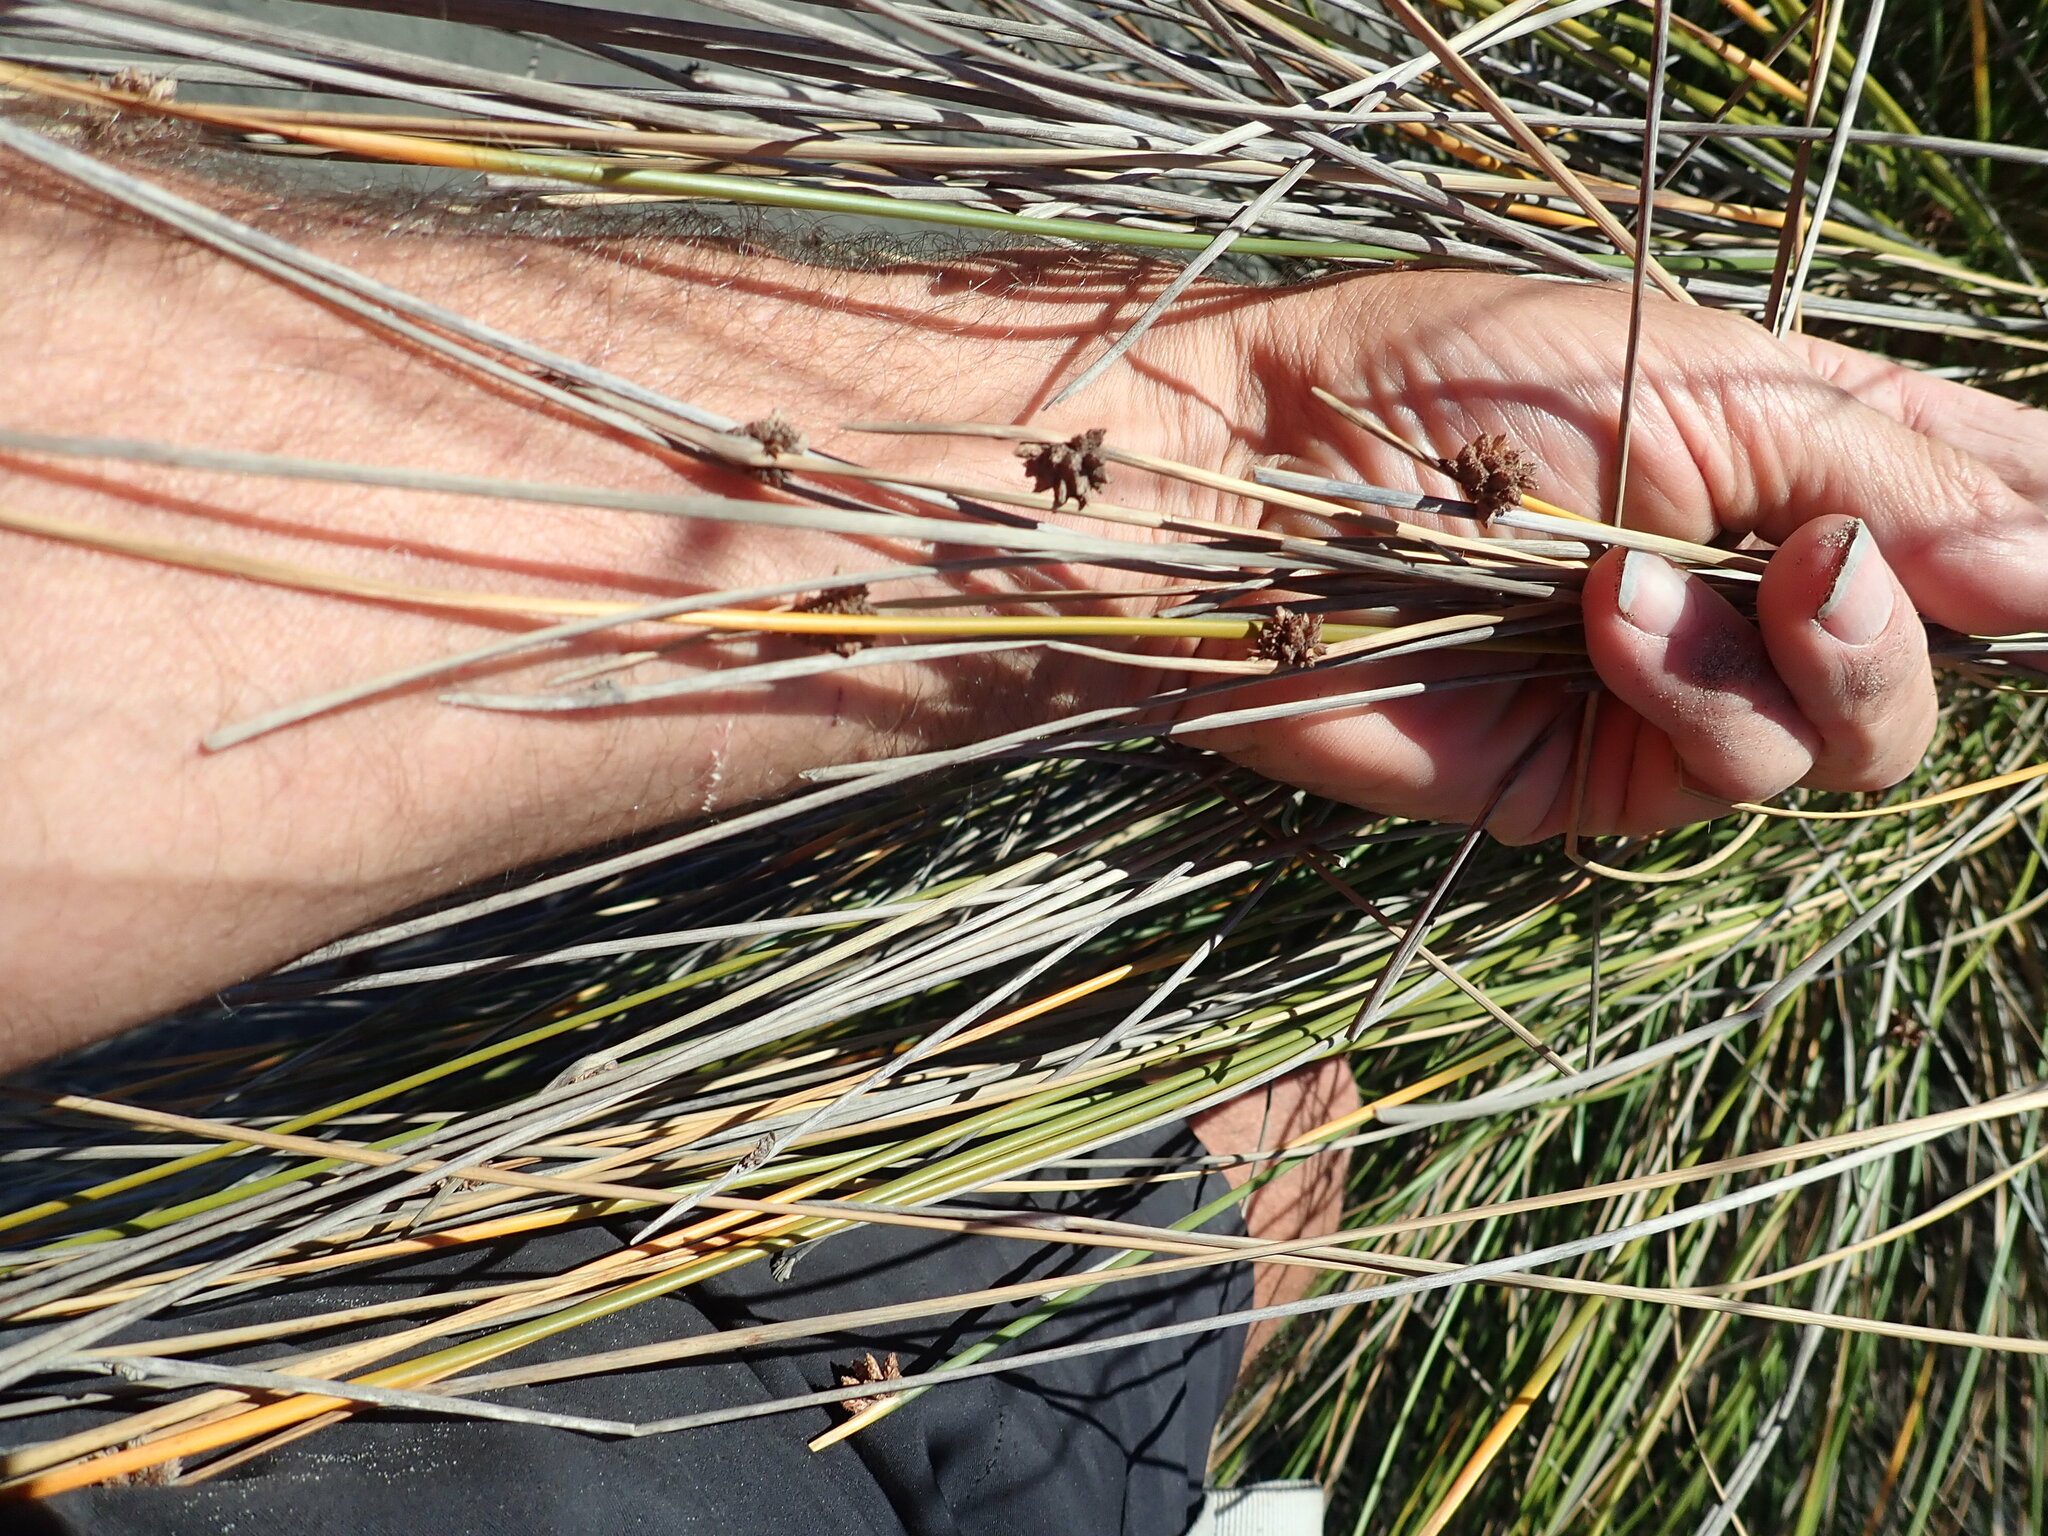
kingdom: Plantae
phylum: Tracheophyta
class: Liliopsida
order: Poales
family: Cyperaceae
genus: Ficinia
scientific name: Ficinia nodosa
